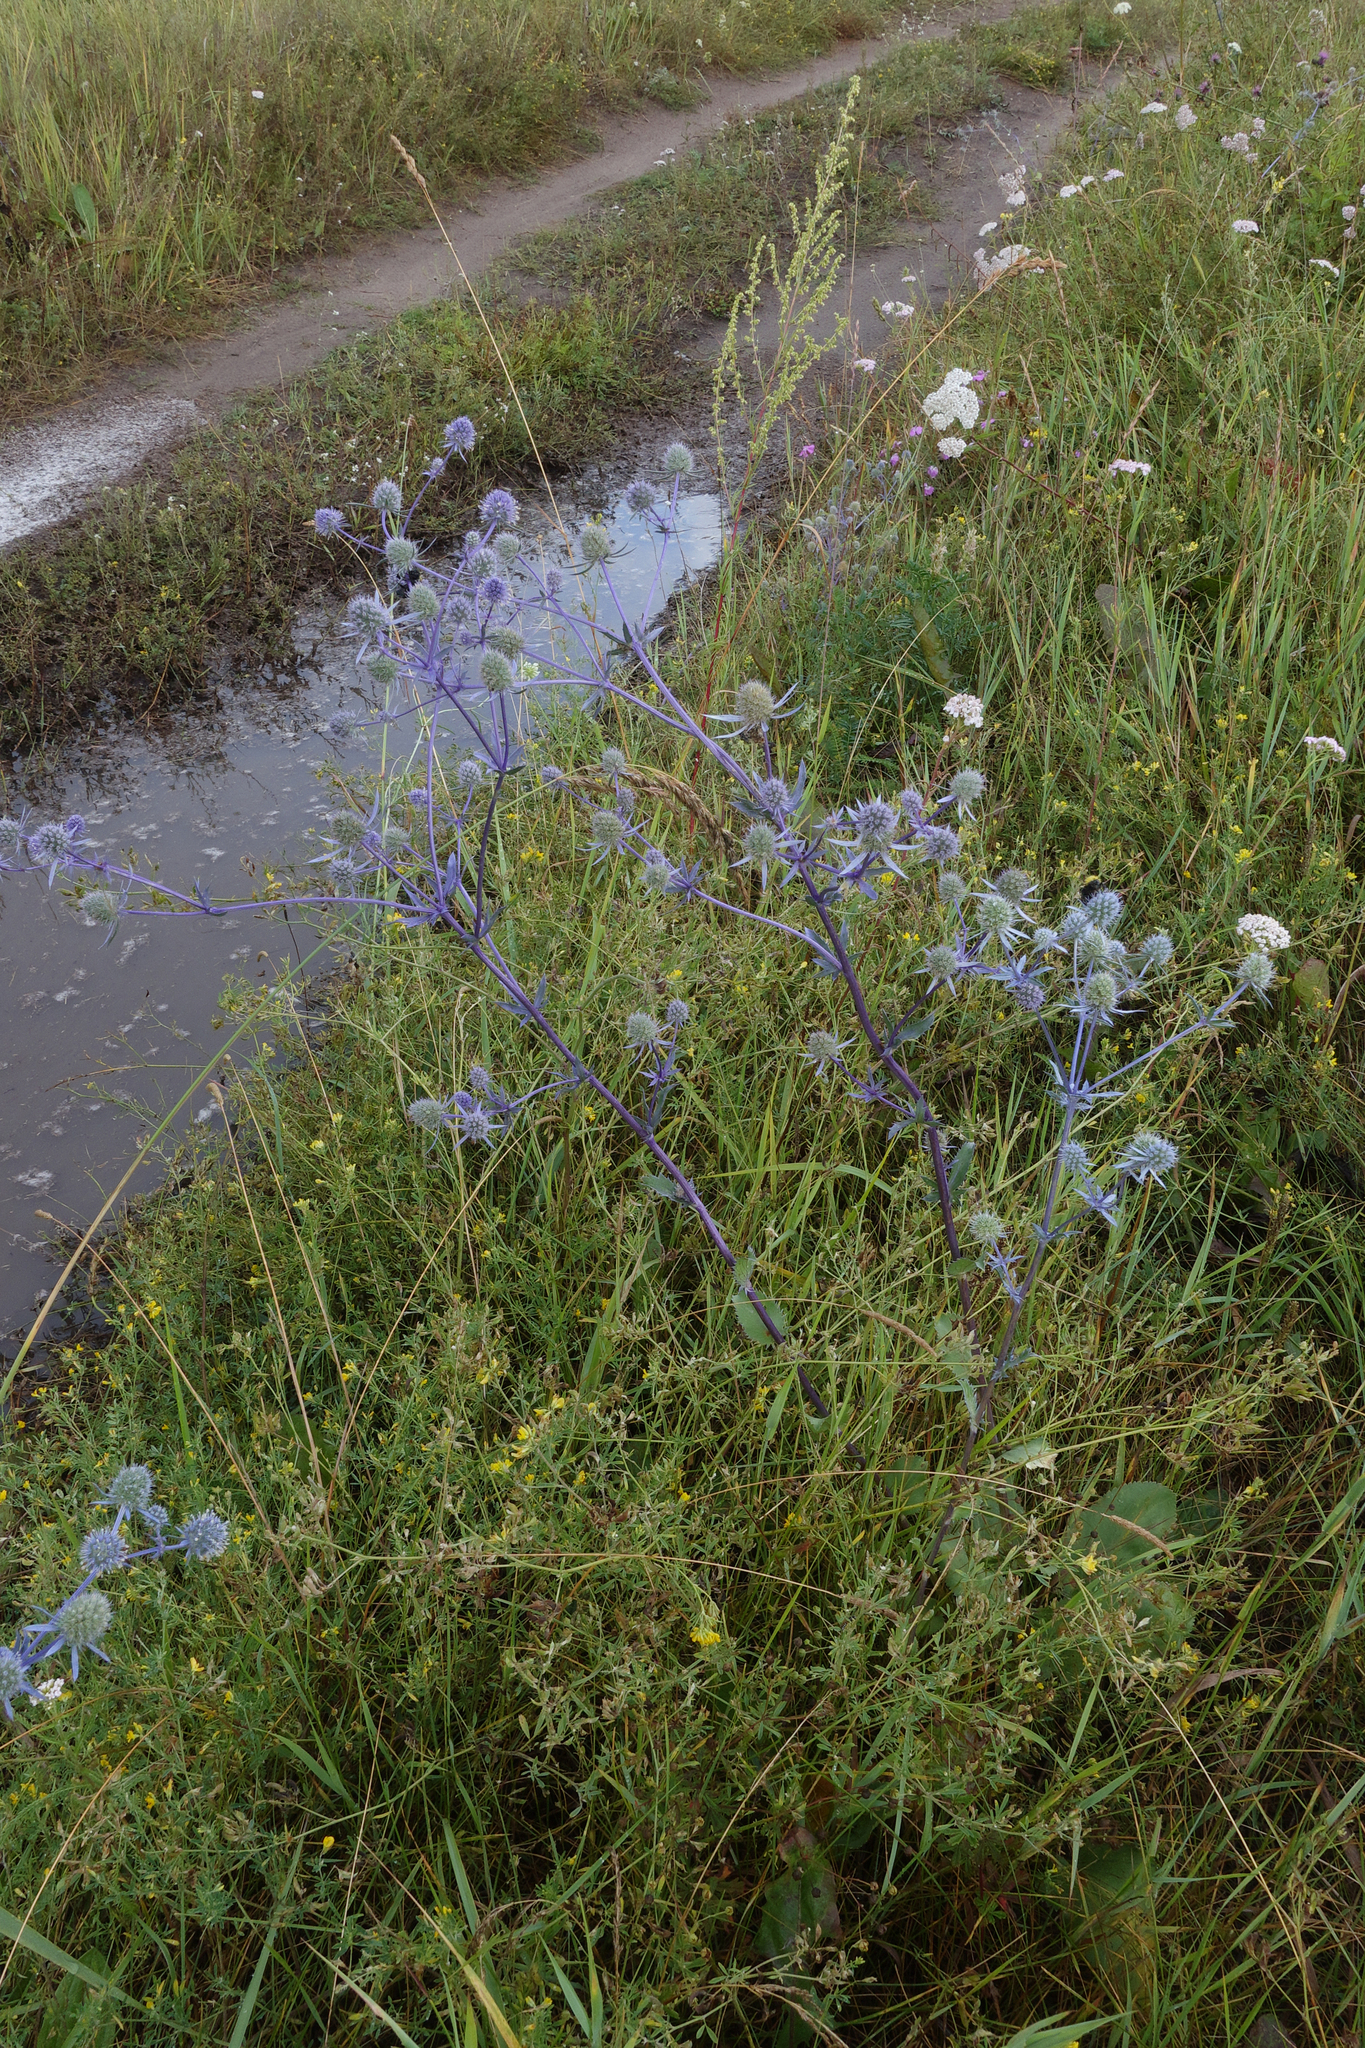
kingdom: Plantae
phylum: Tracheophyta
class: Magnoliopsida
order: Apiales
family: Apiaceae
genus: Eryngium
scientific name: Eryngium planum
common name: Blue eryngo
